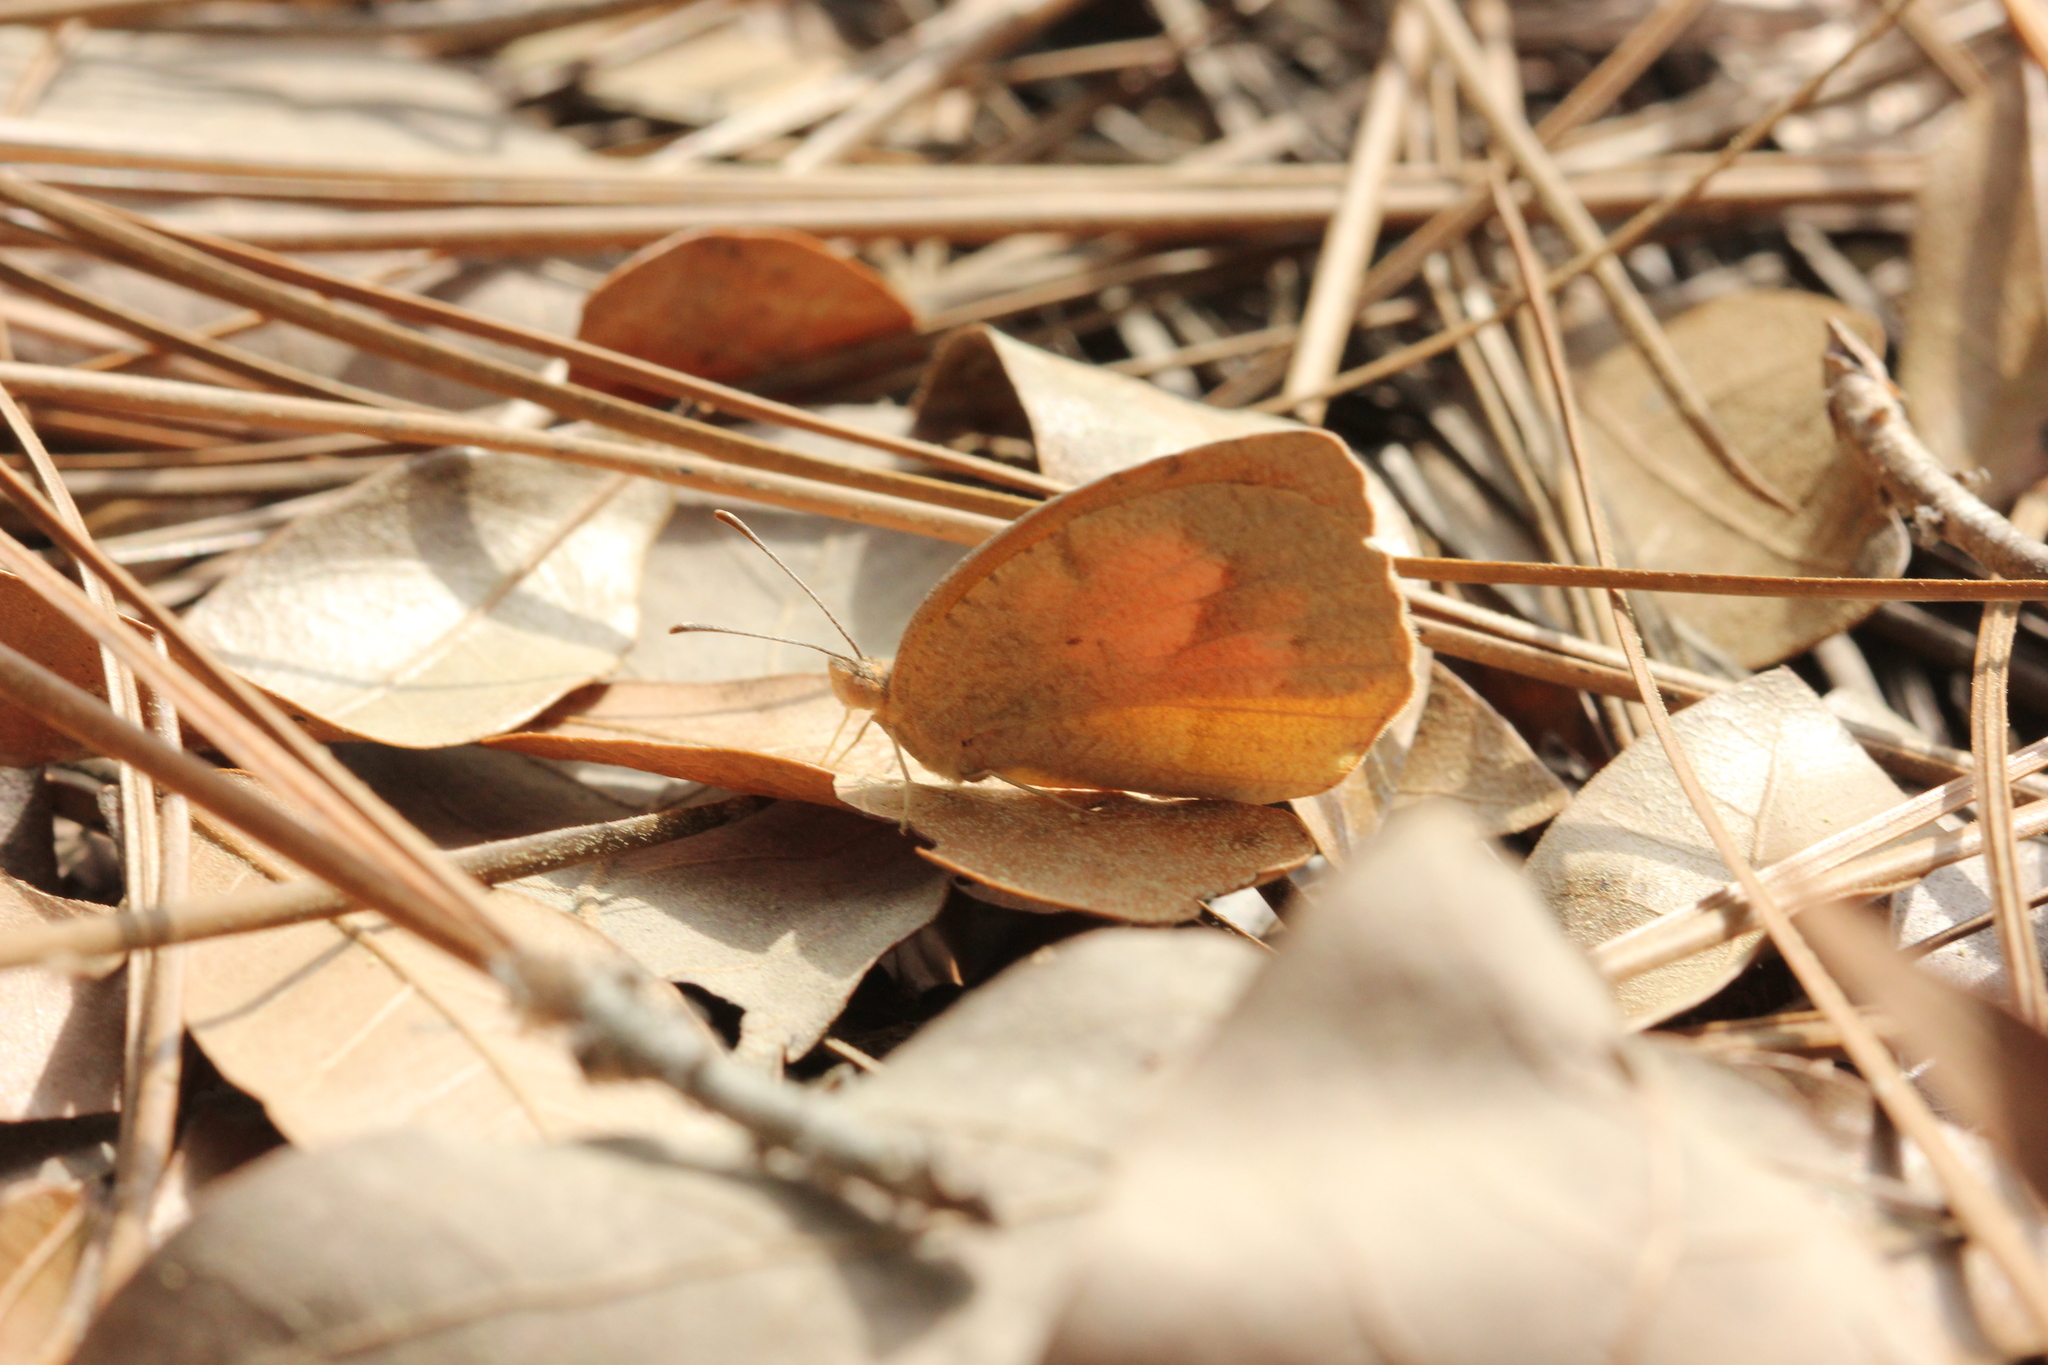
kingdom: Animalia
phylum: Arthropoda
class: Insecta
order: Lepidoptera
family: Pieridae
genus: Abaeis
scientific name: Abaeis nicippe
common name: Sleepy orange
